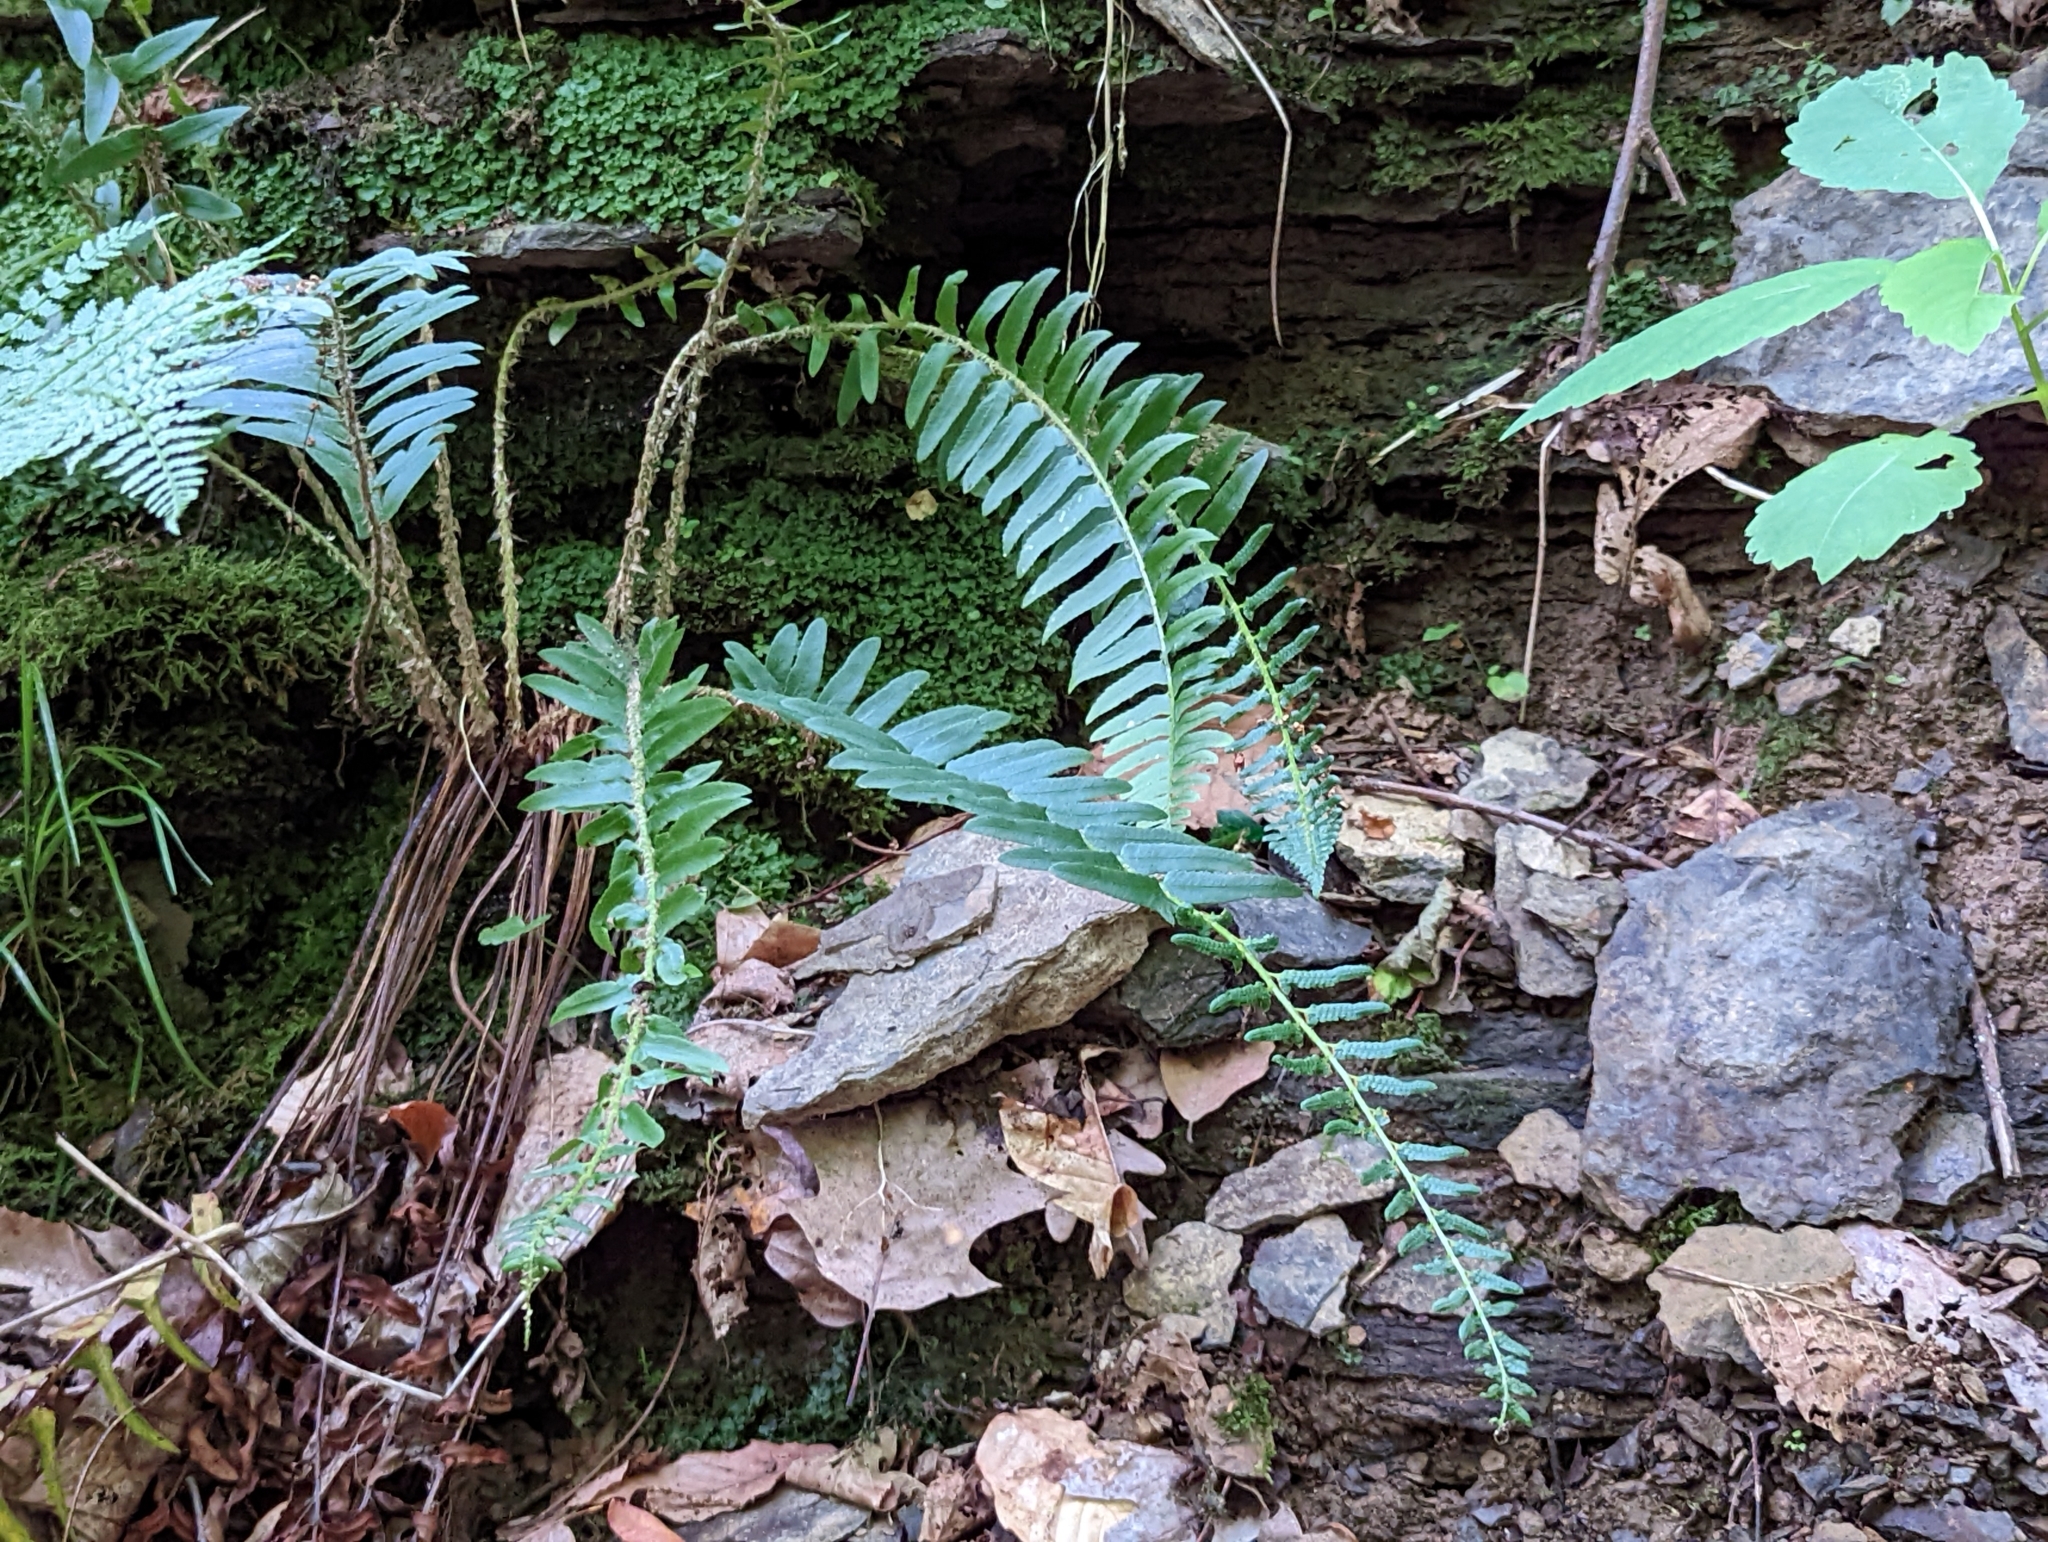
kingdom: Plantae
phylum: Tracheophyta
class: Polypodiopsida
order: Polypodiales
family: Dryopteridaceae
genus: Polystichum
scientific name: Polystichum acrostichoides
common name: Christmas fern
